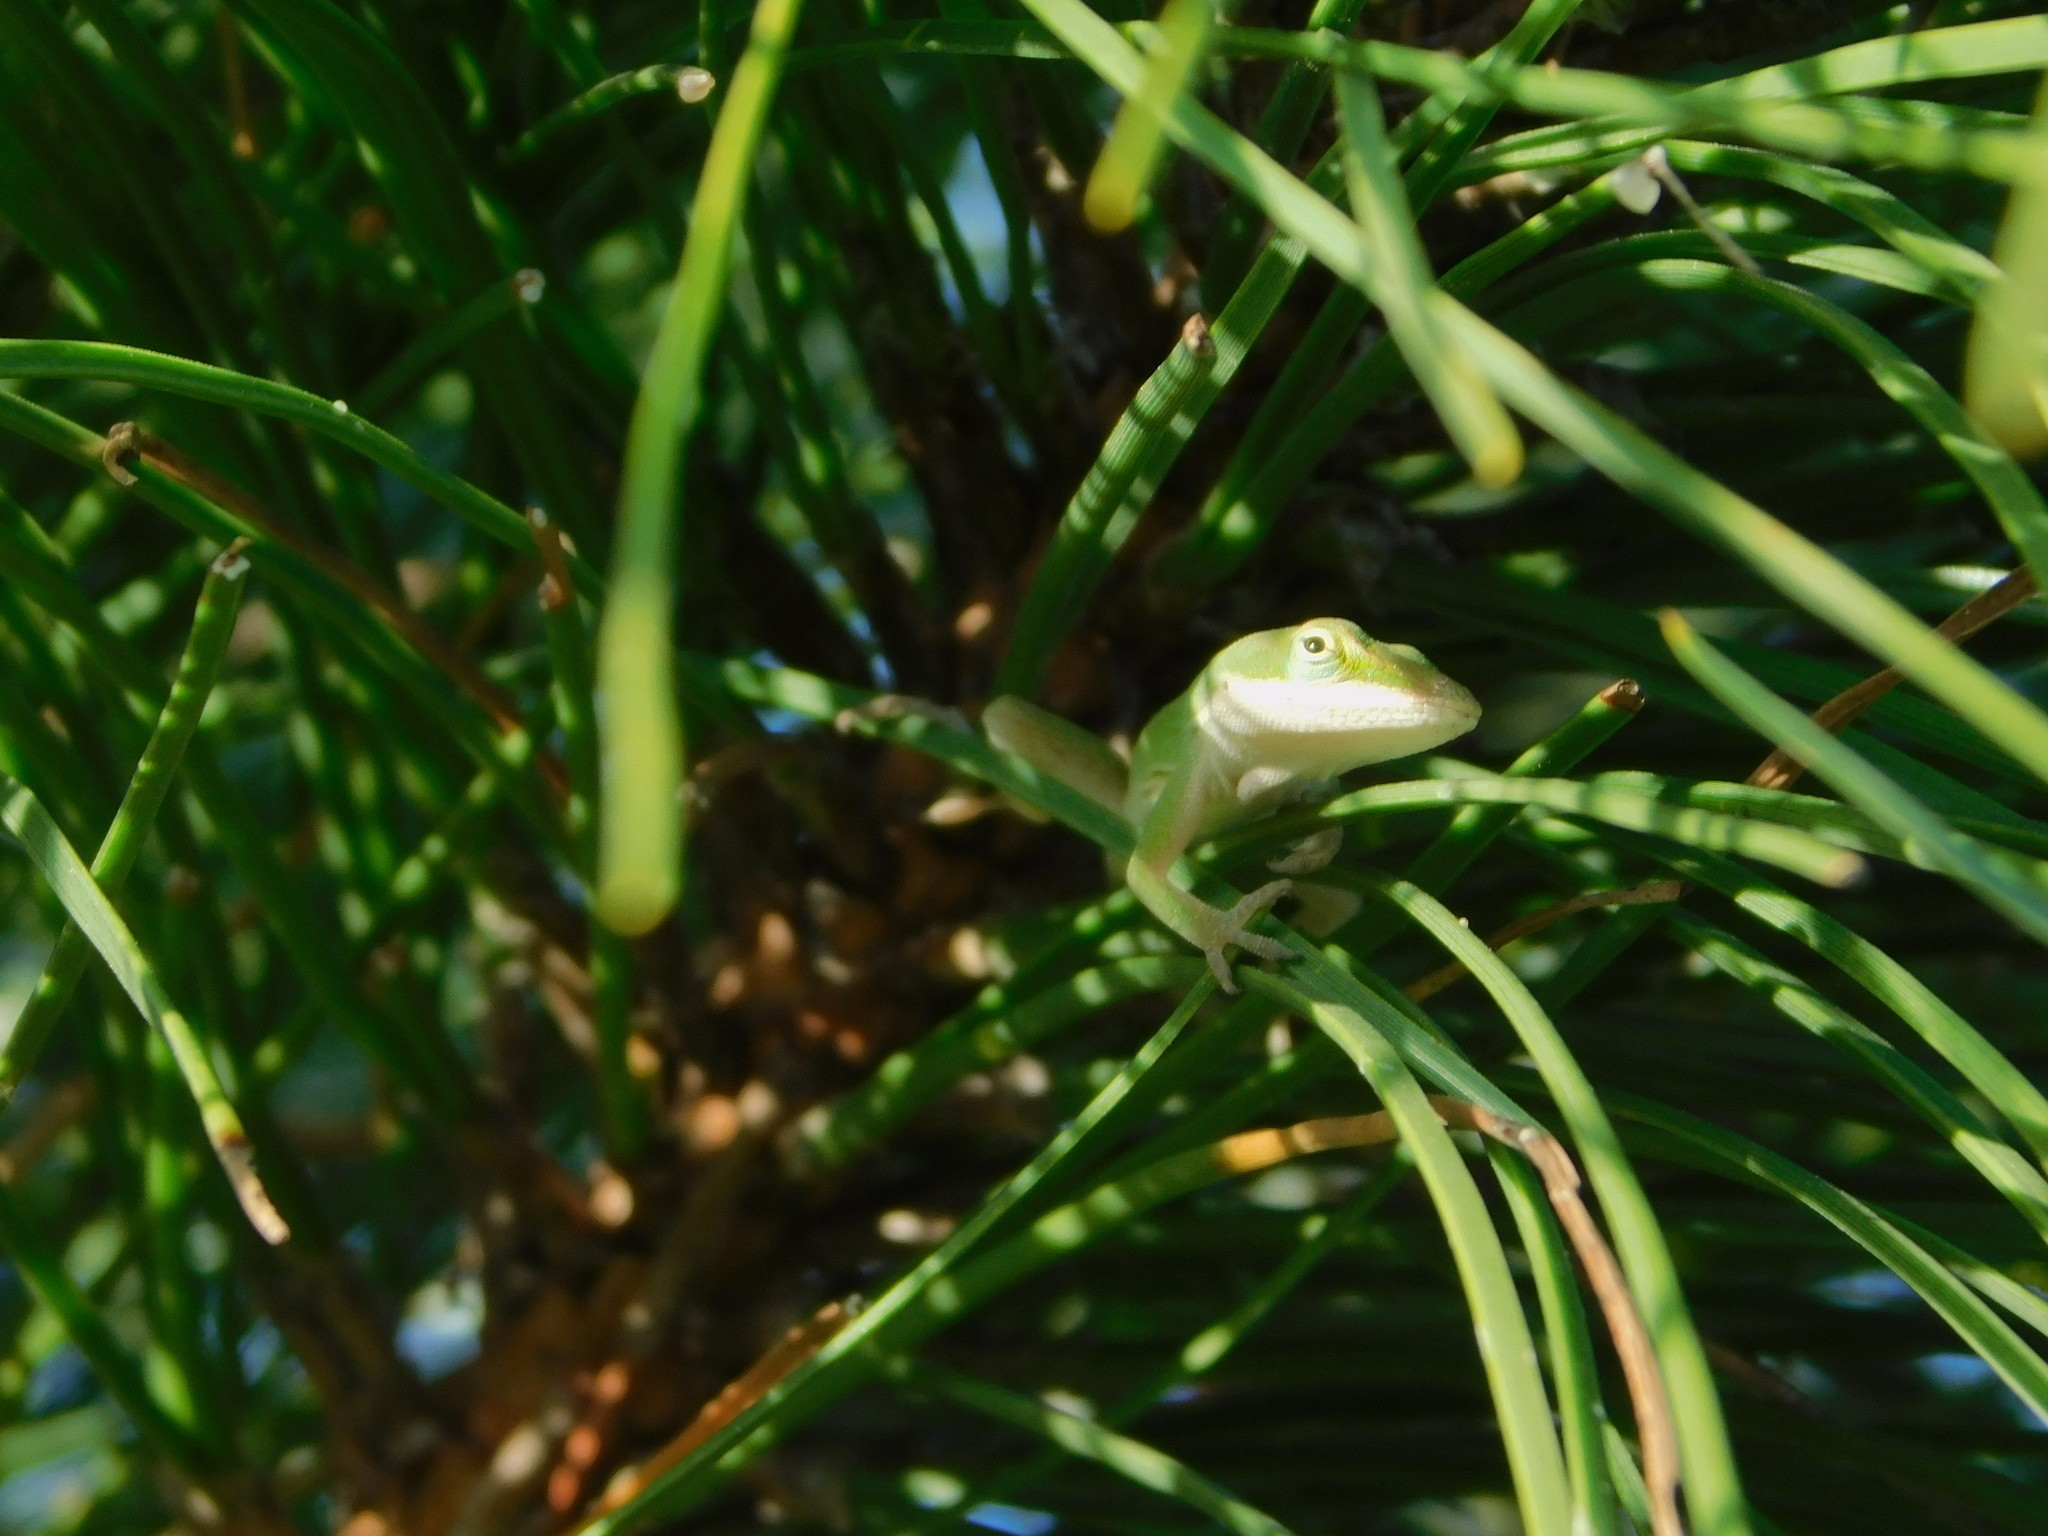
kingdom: Animalia
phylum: Chordata
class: Squamata
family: Dactyloidae
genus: Anolis
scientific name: Anolis carolinensis
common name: Green anole
